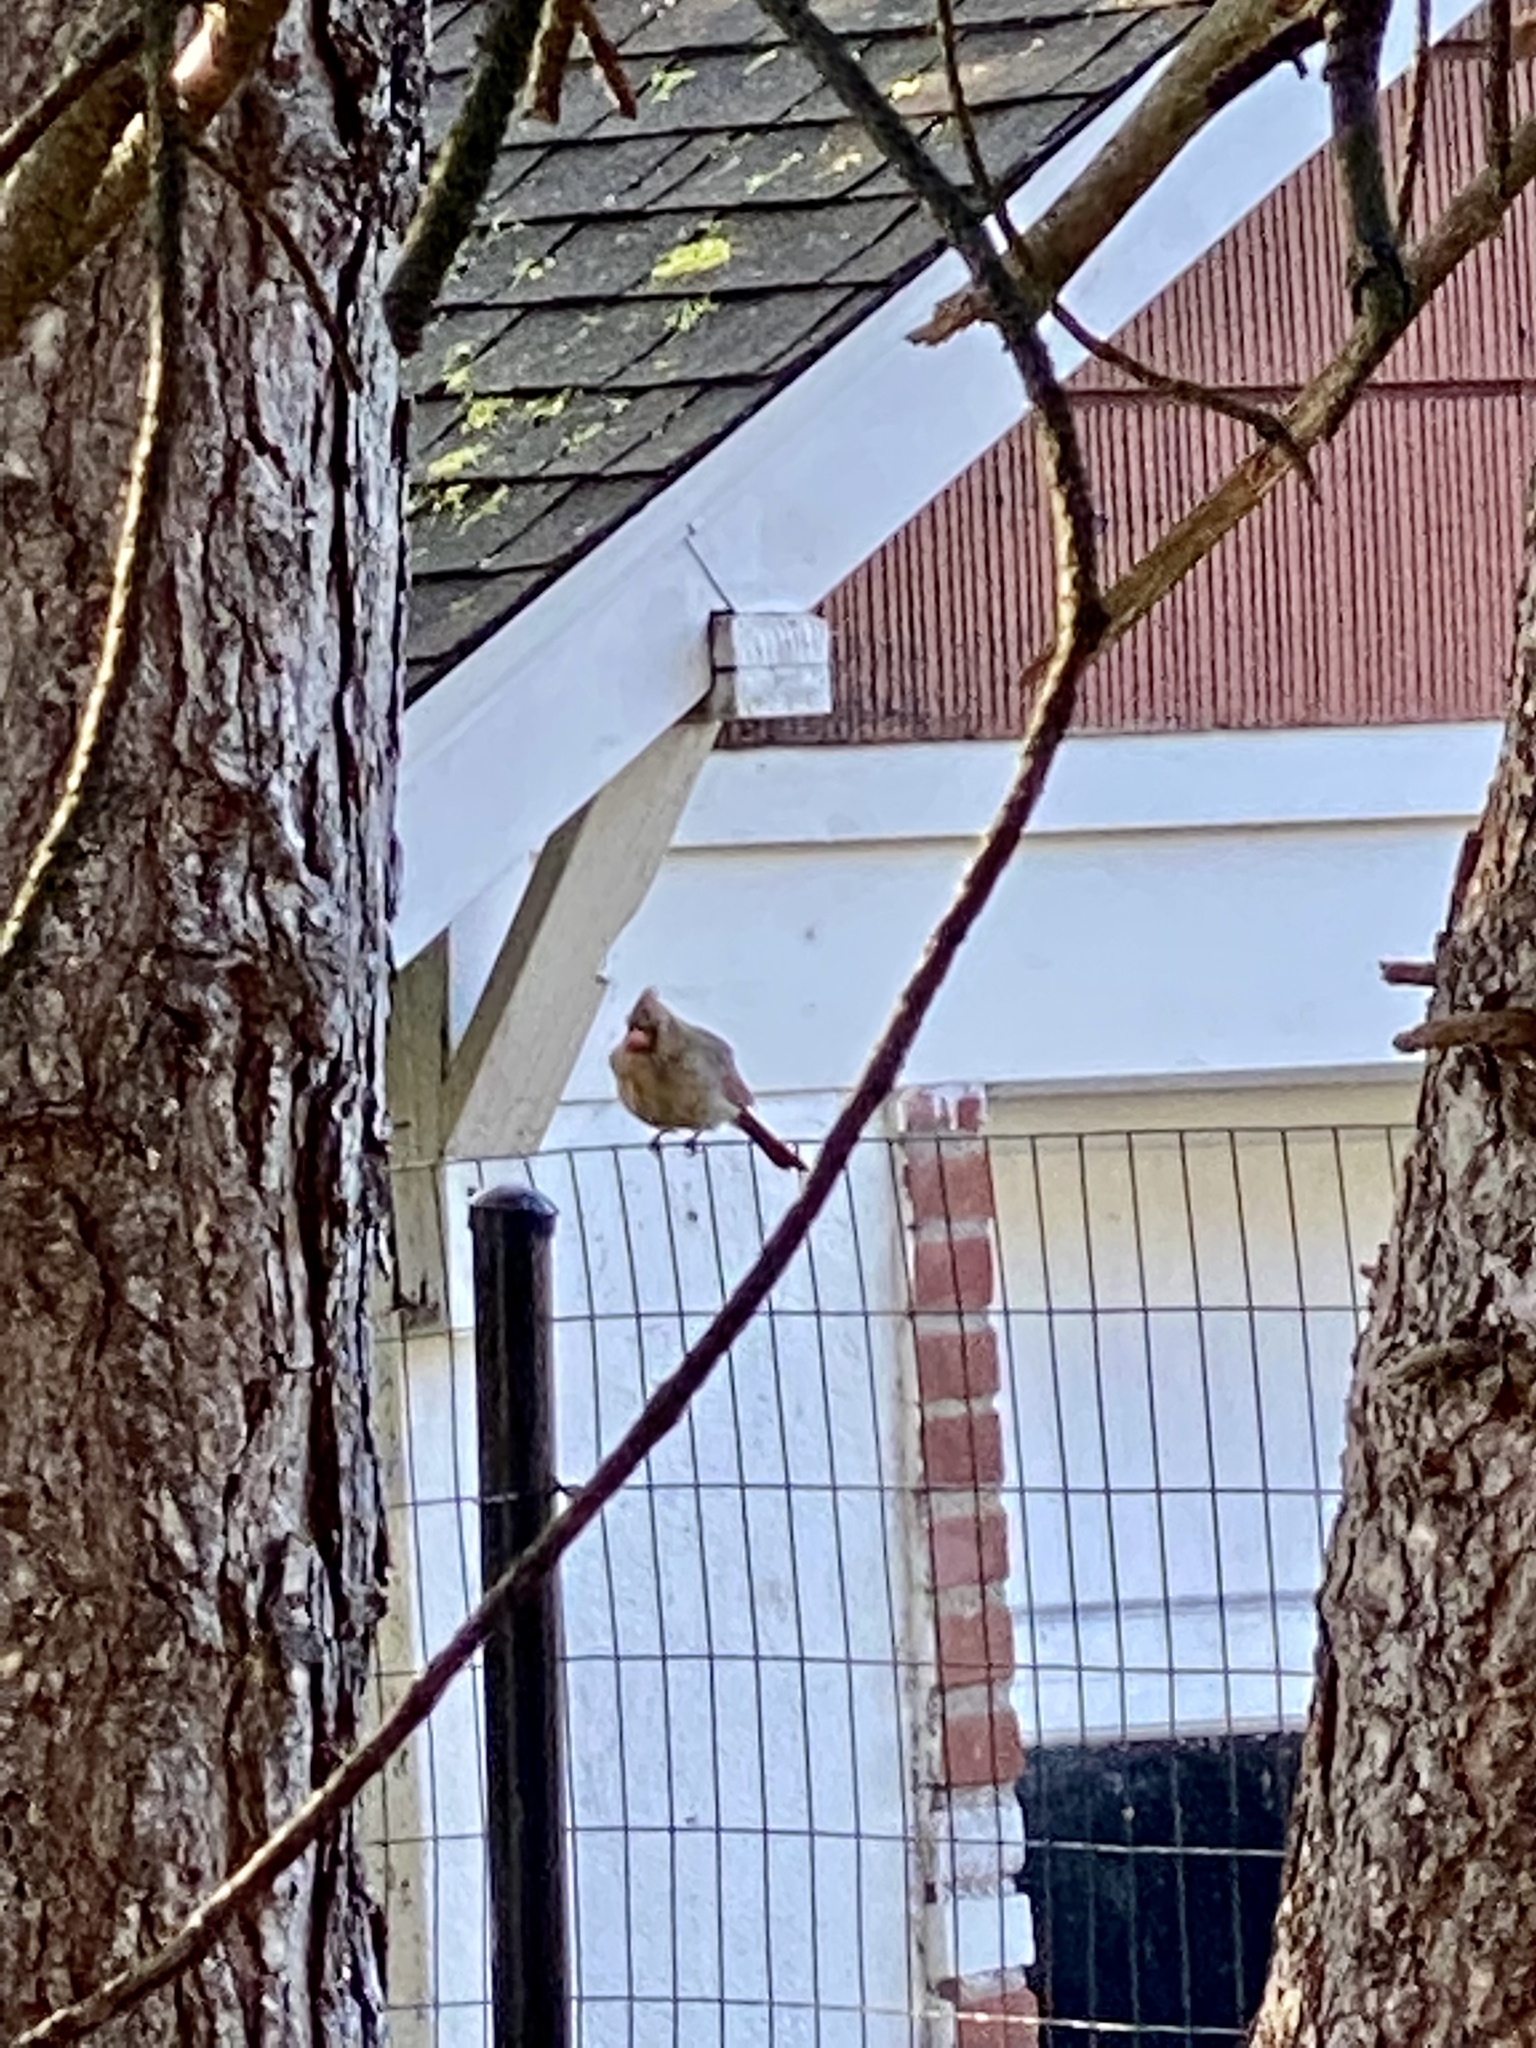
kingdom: Animalia
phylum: Chordata
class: Aves
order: Passeriformes
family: Cardinalidae
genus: Cardinalis
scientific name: Cardinalis cardinalis
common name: Northern cardinal
